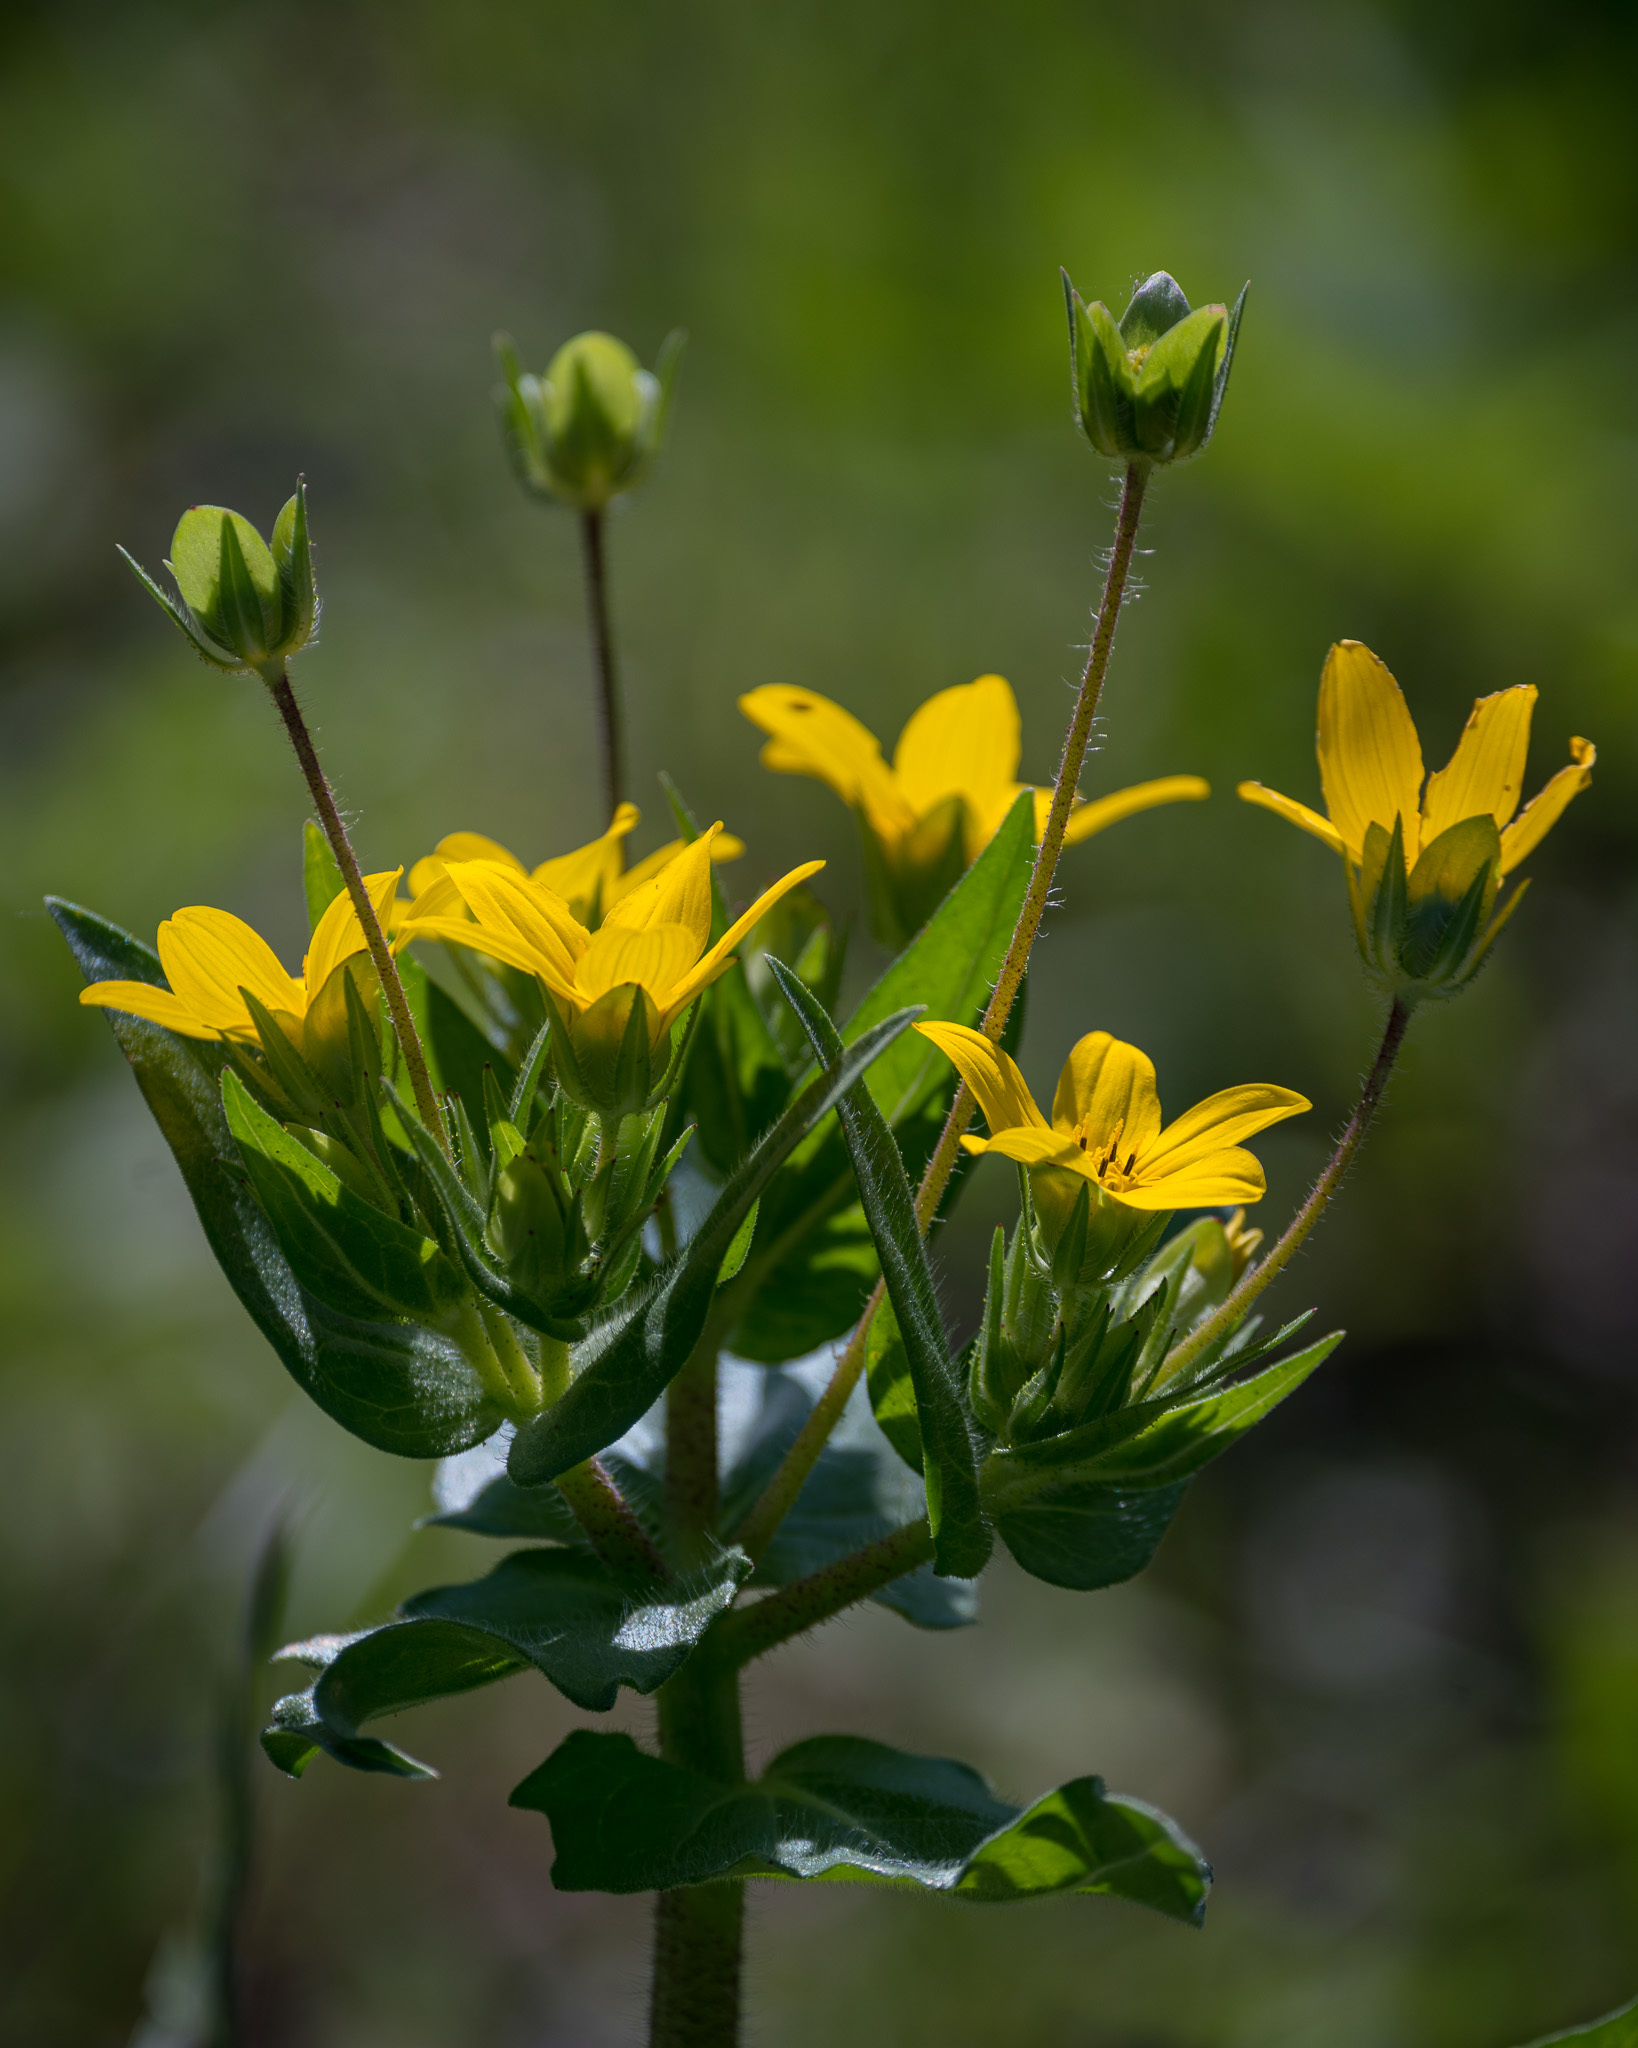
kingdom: Plantae
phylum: Tracheophyta
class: Magnoliopsida
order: Asterales
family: Asteraceae
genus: Lindheimera
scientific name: Lindheimera texana
